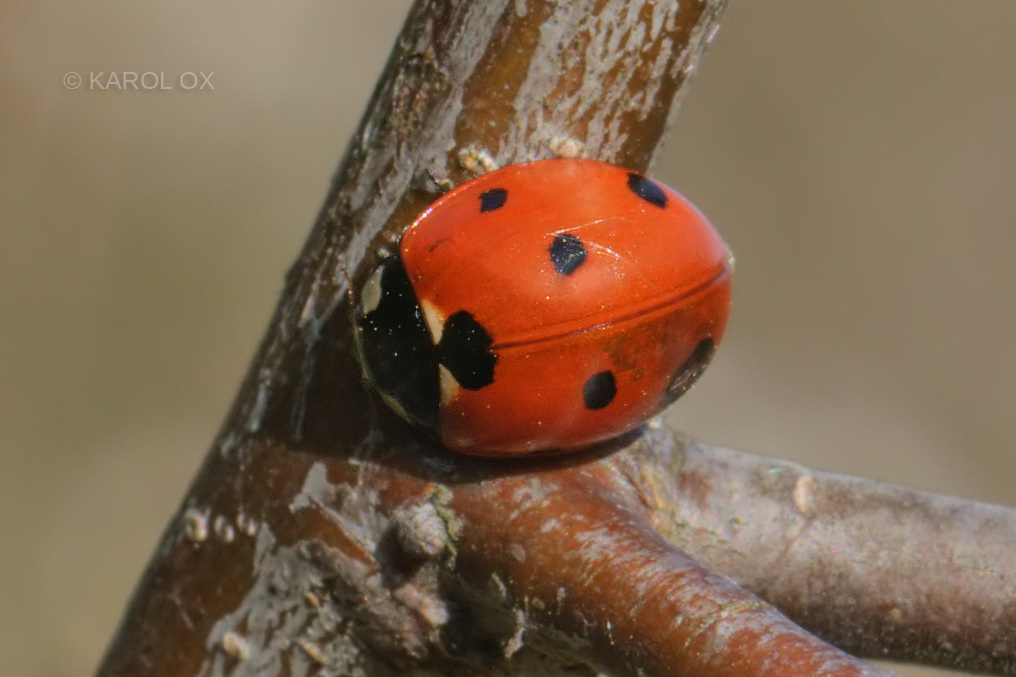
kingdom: Animalia
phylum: Arthropoda
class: Insecta
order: Coleoptera
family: Coccinellidae
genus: Coccinella
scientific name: Coccinella septempunctata
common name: Sevenspotted lady beetle
